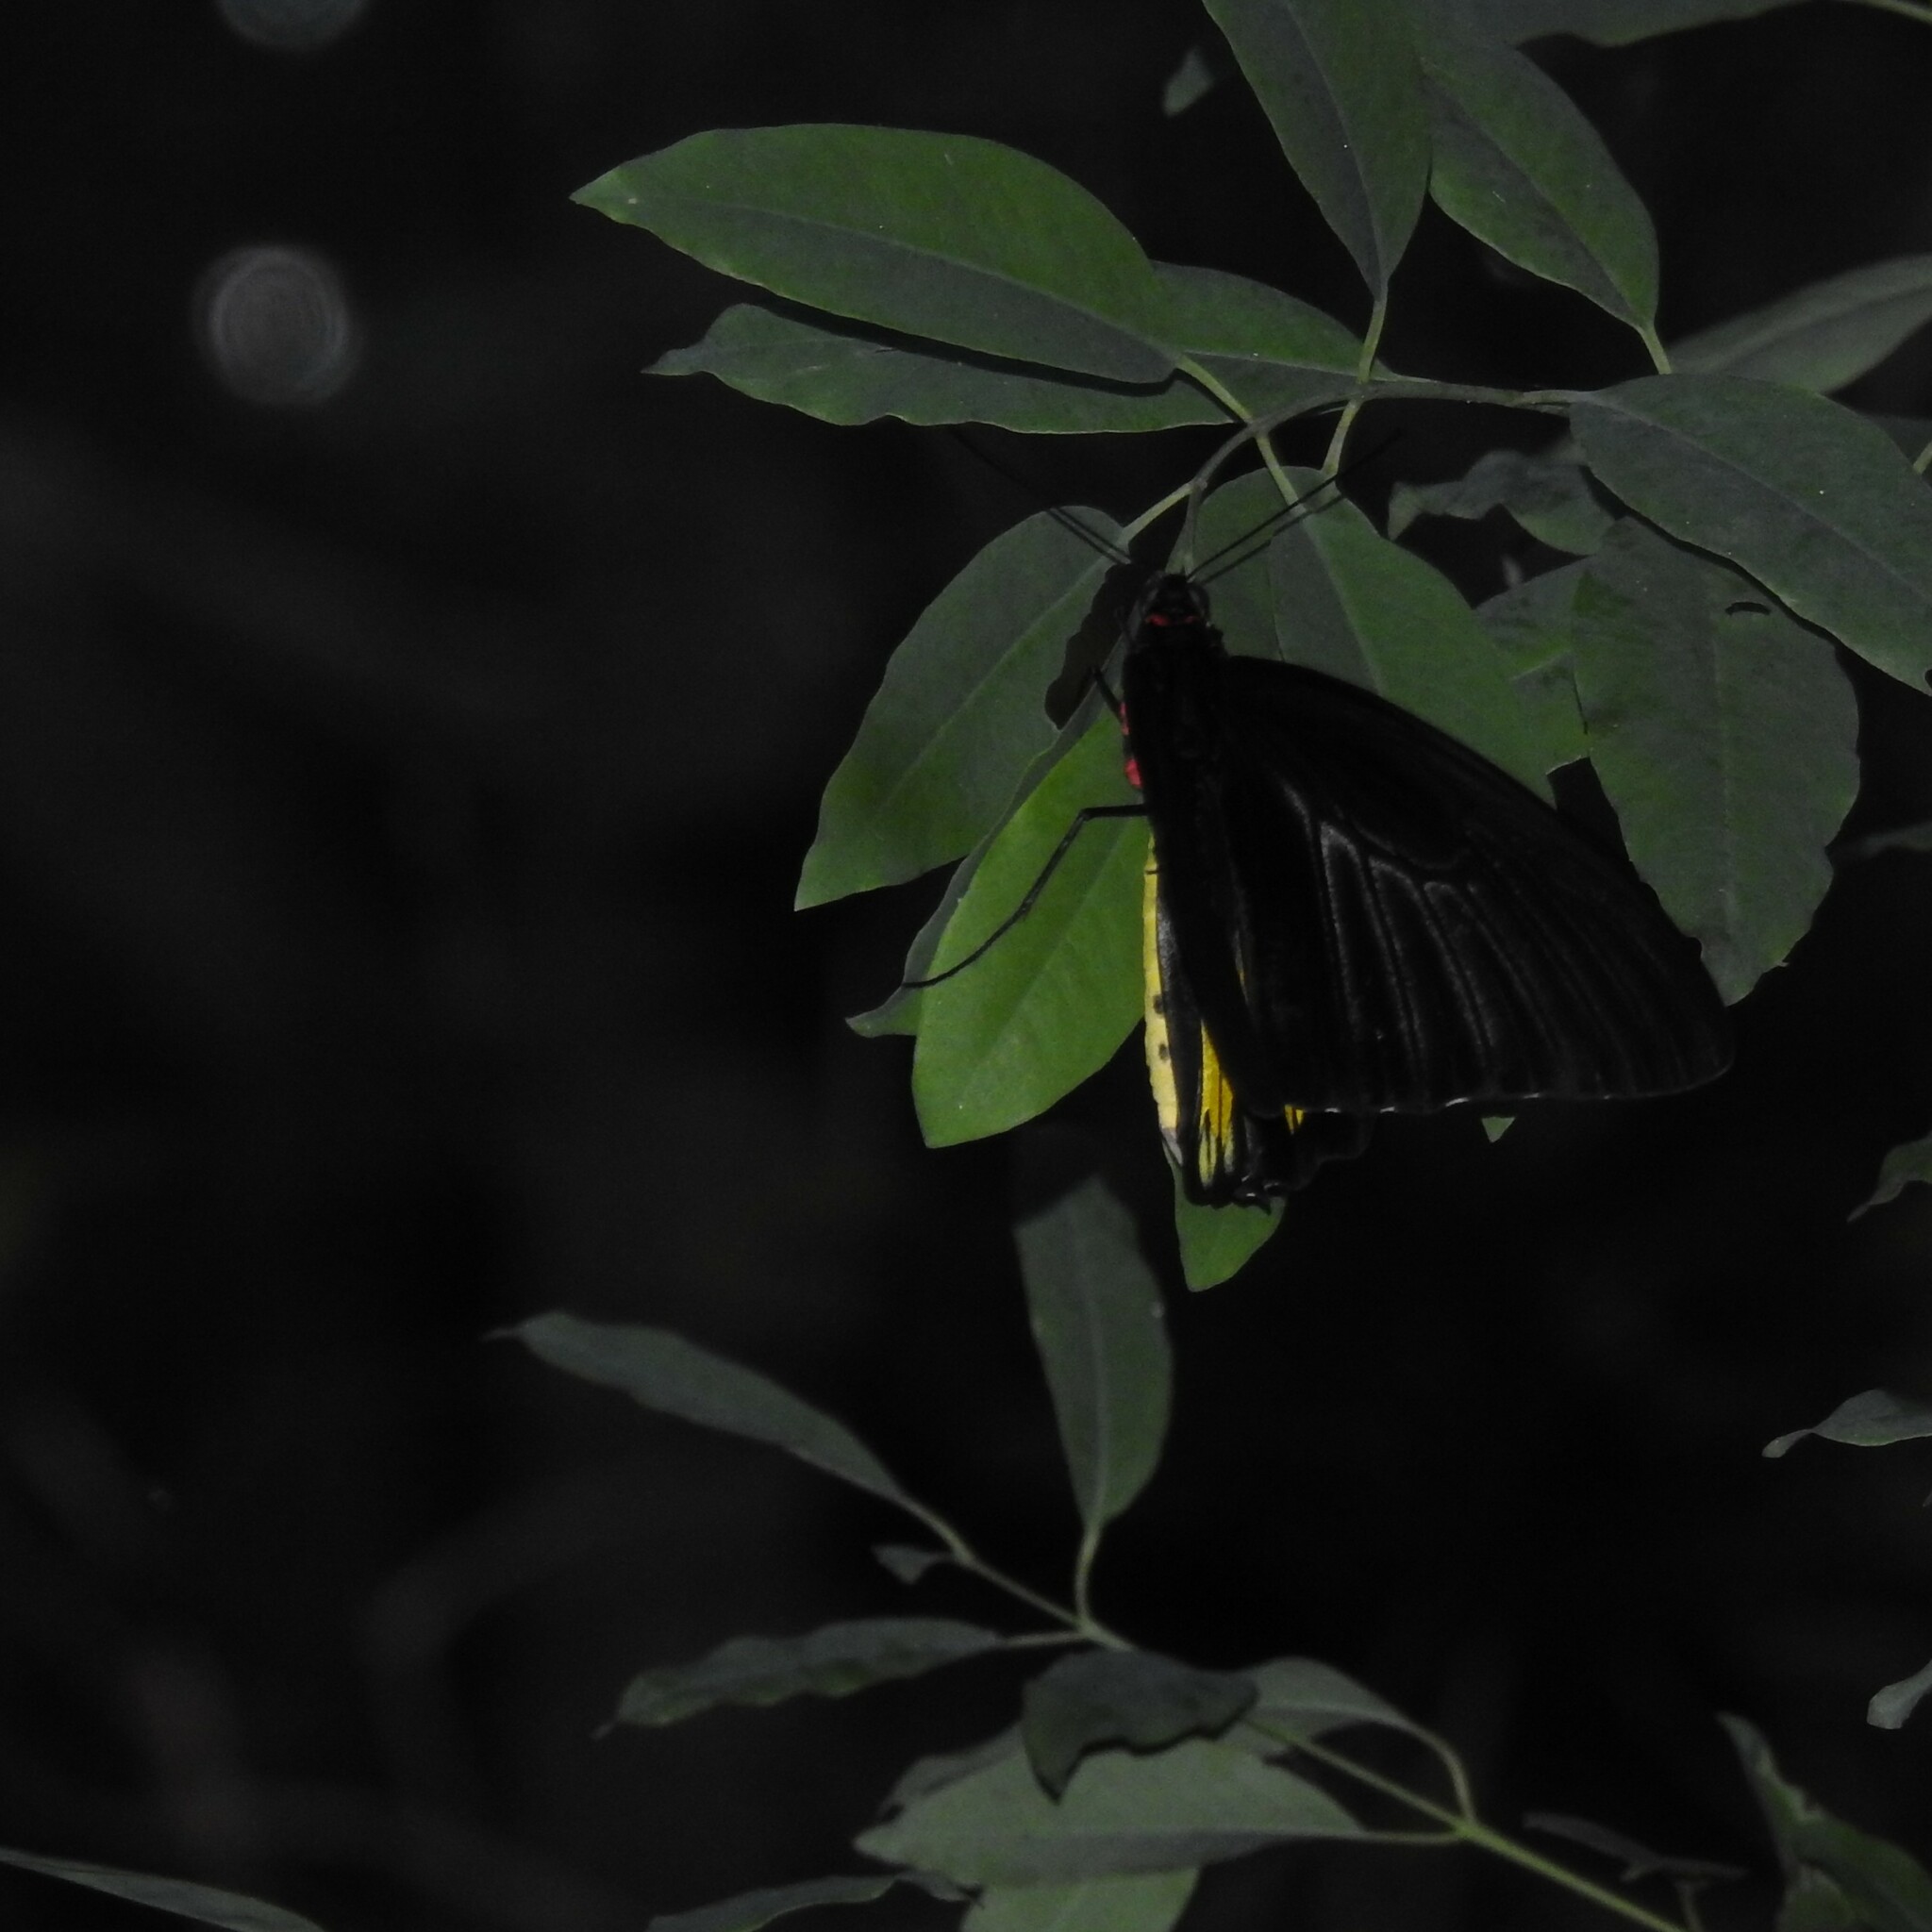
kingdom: Animalia
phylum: Arthropoda
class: Insecta
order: Lepidoptera
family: Papilionidae
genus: Troides
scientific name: Troides minos
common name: Malabar birdwing
